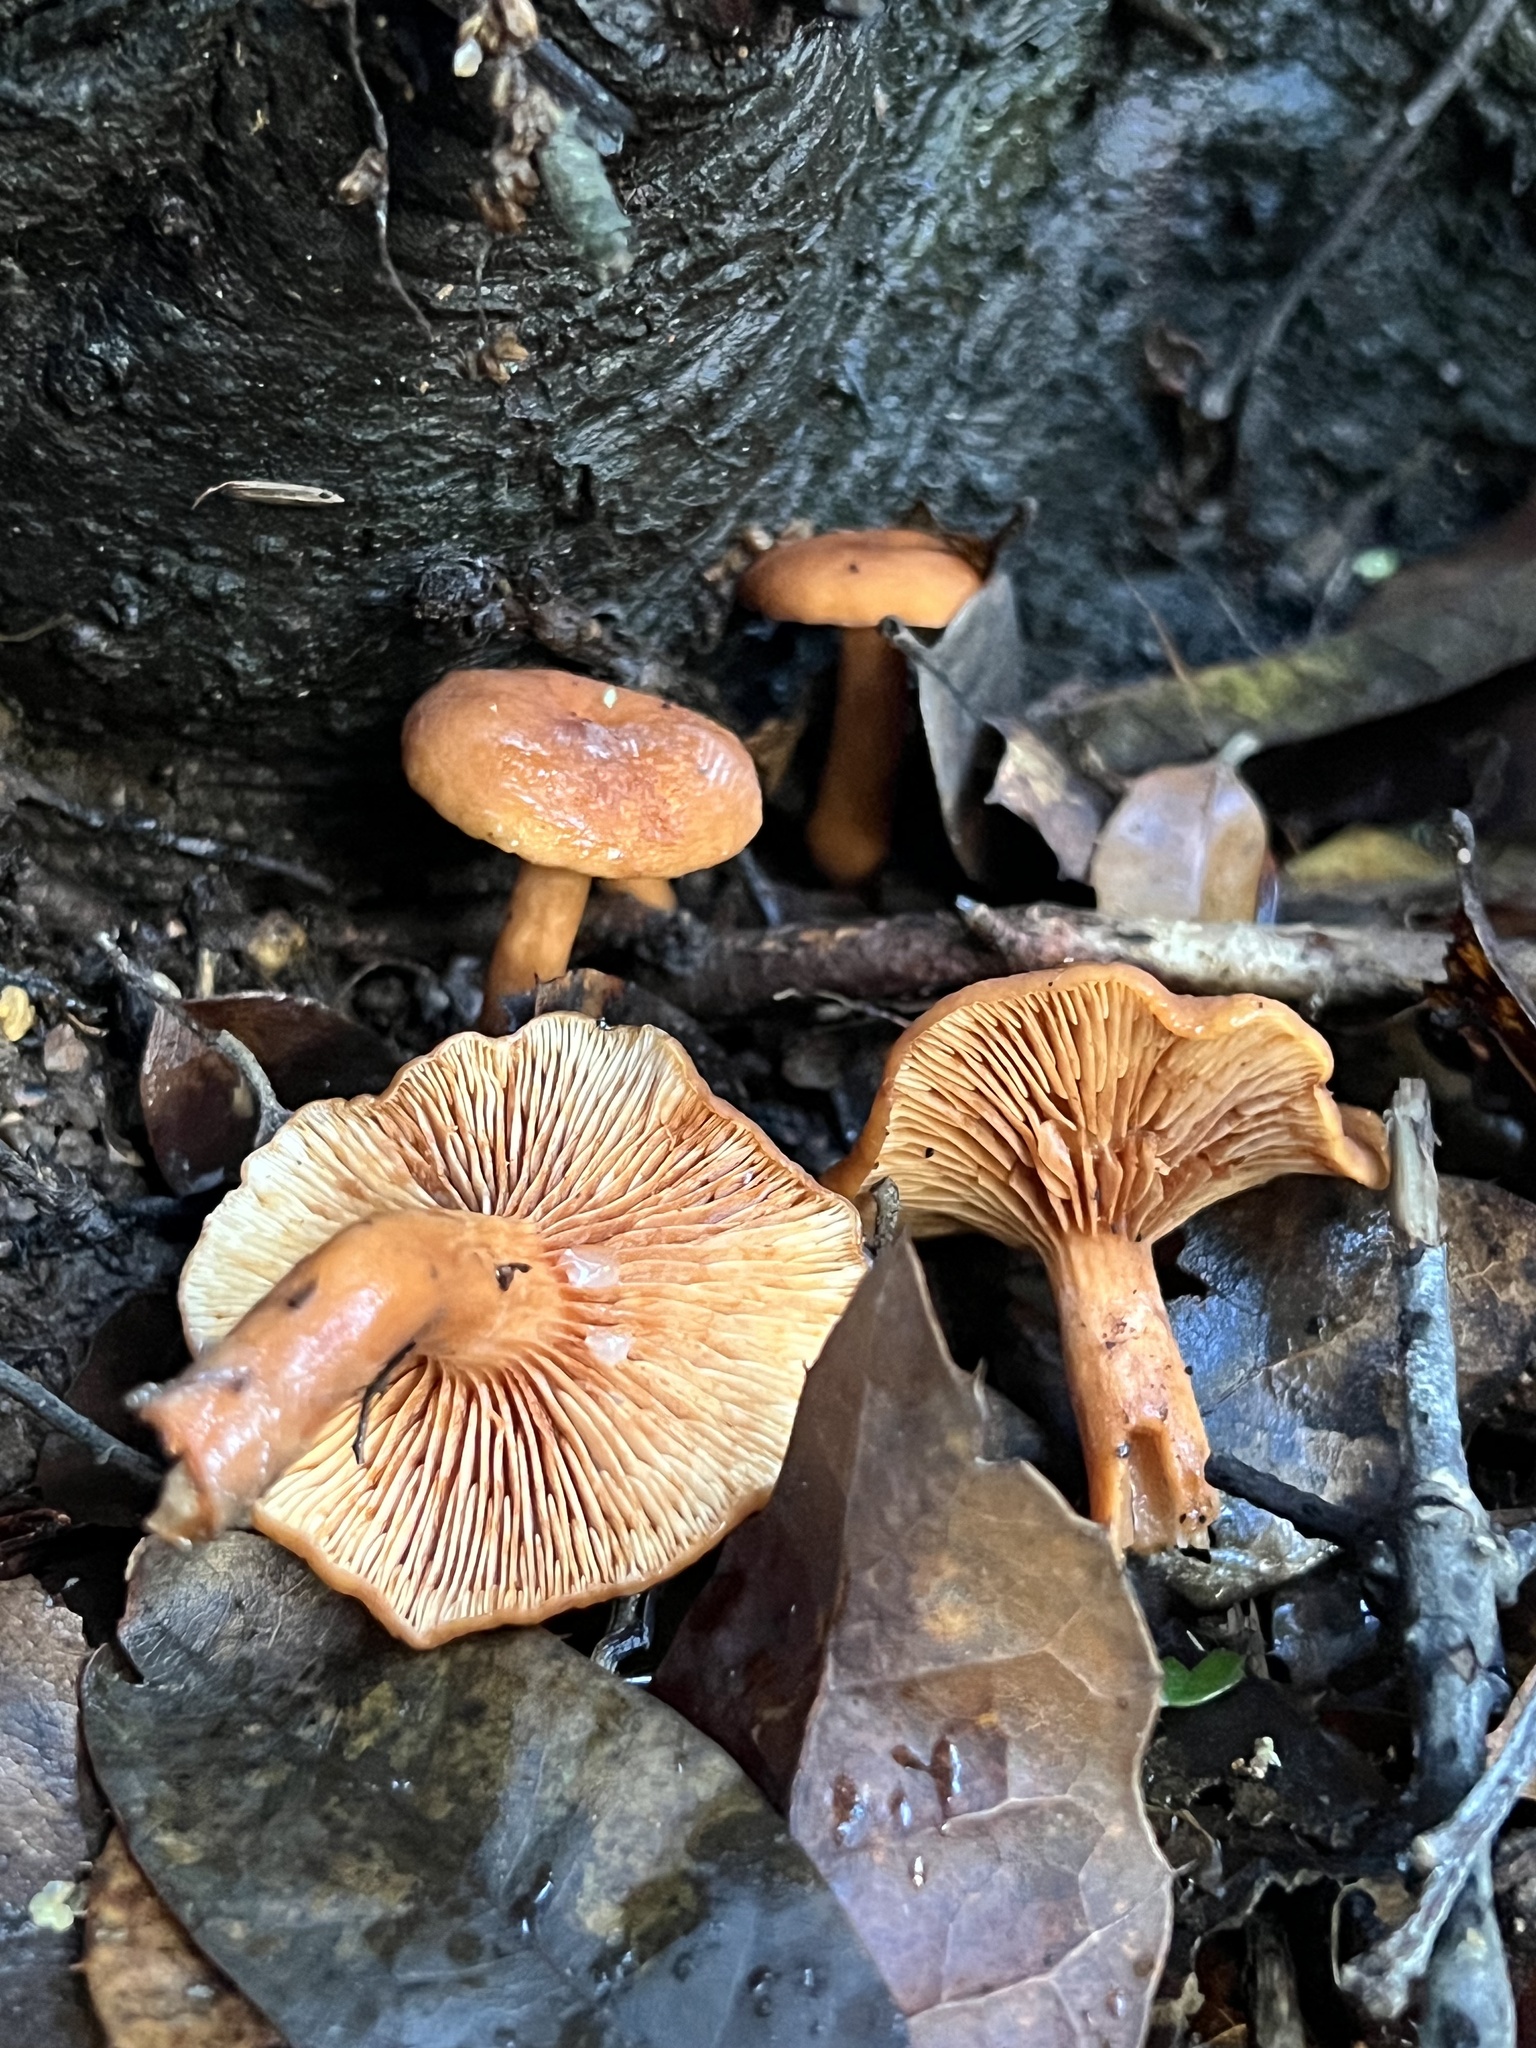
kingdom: Fungi
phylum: Basidiomycota
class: Agaricomycetes
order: Russulales
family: Russulaceae
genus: Lactarius
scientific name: Lactarius rubidus
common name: Candy cap
